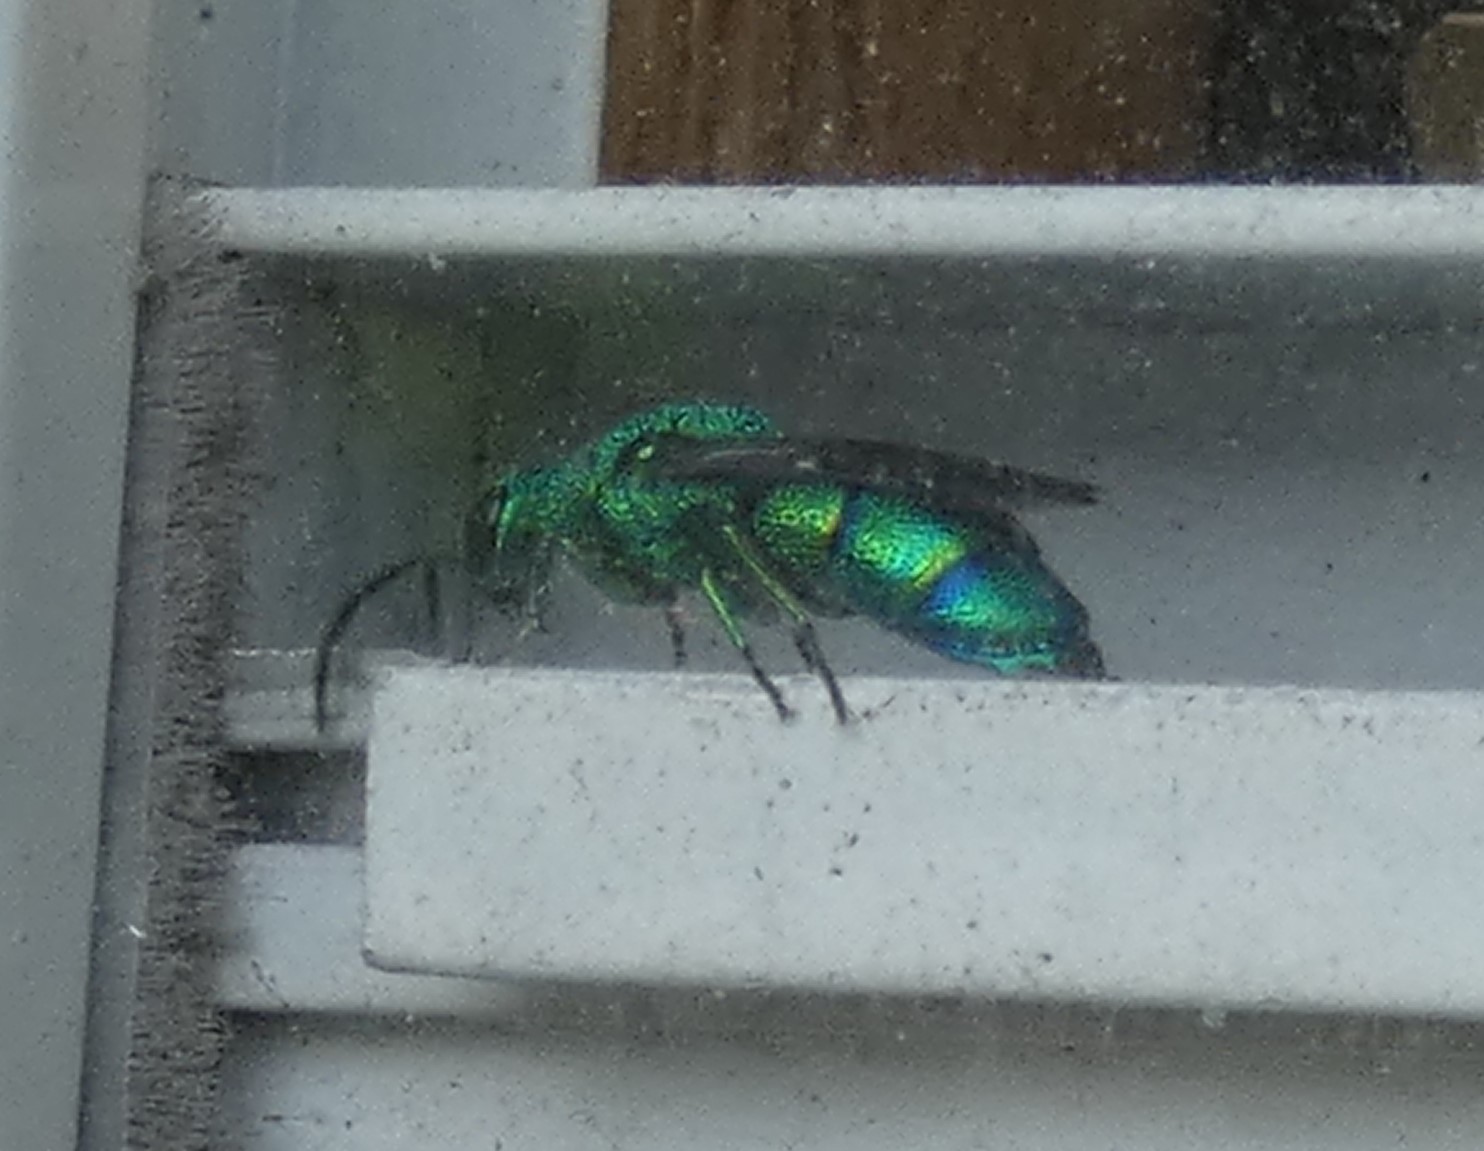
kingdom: Animalia
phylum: Arthropoda
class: Insecta
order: Hymenoptera
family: Chrysididae
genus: Chrysis
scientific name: Chrysis smaragdula
